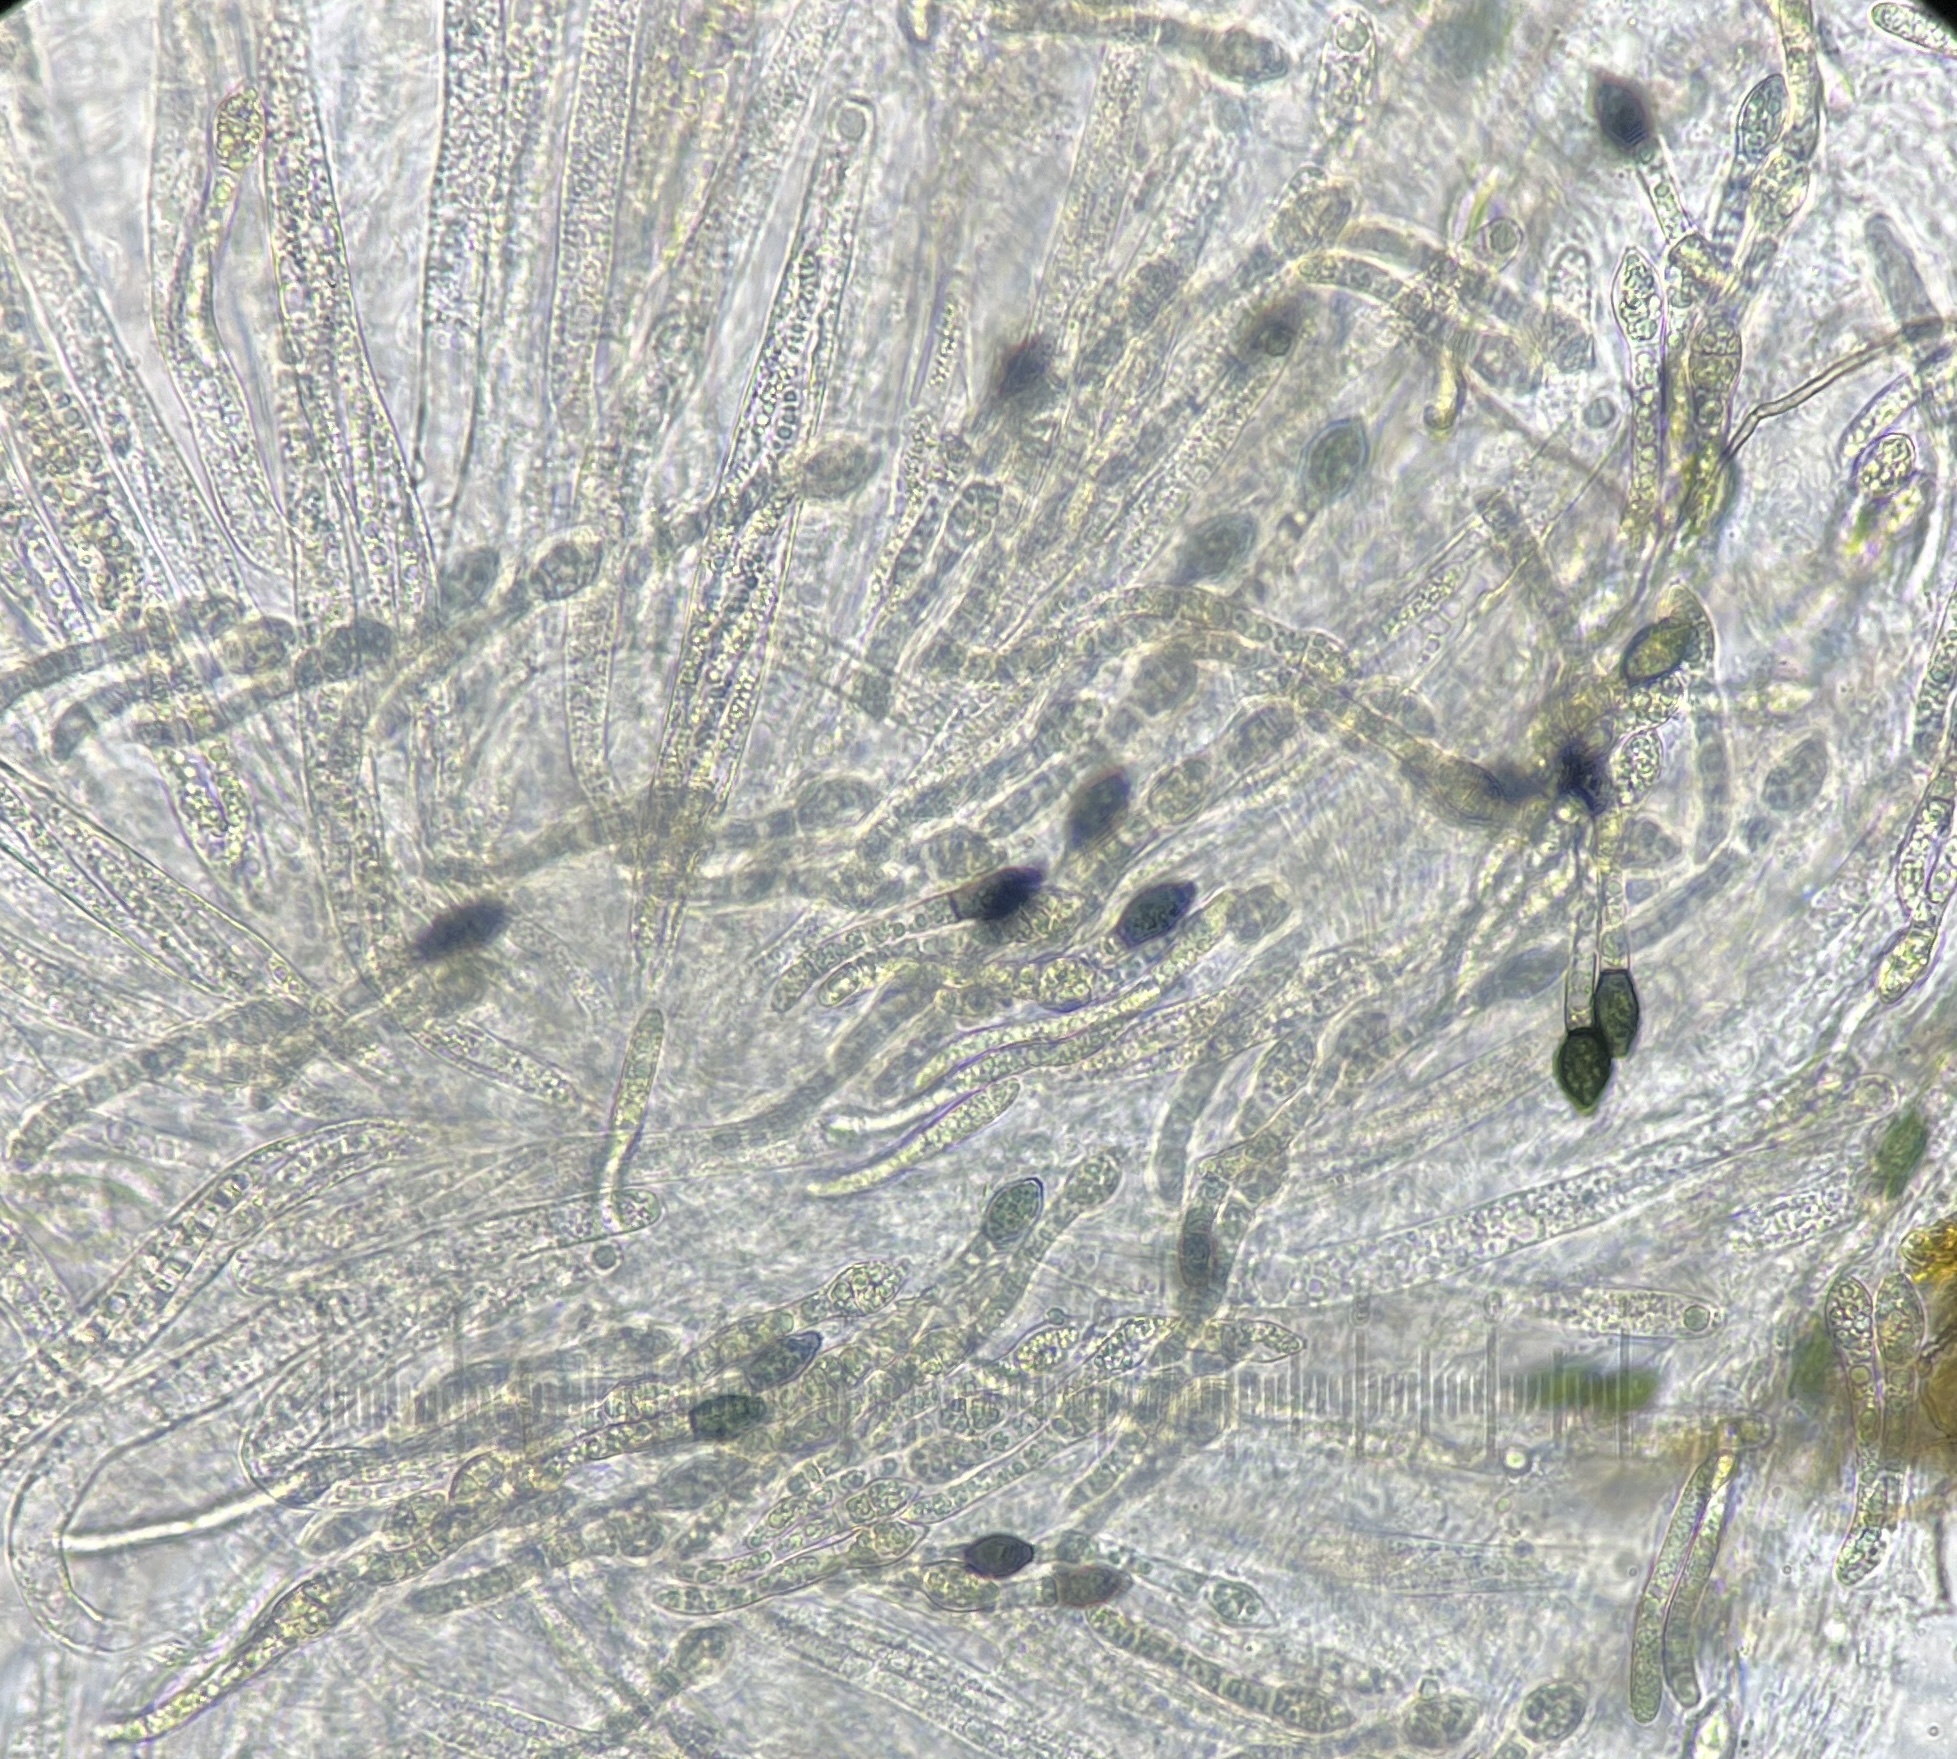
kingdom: Fungi
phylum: Ascomycota
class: Sordariomycetes
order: Sordariales
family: Neoschizotheciaceae
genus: Cercophora
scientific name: Cercophora silvatica
